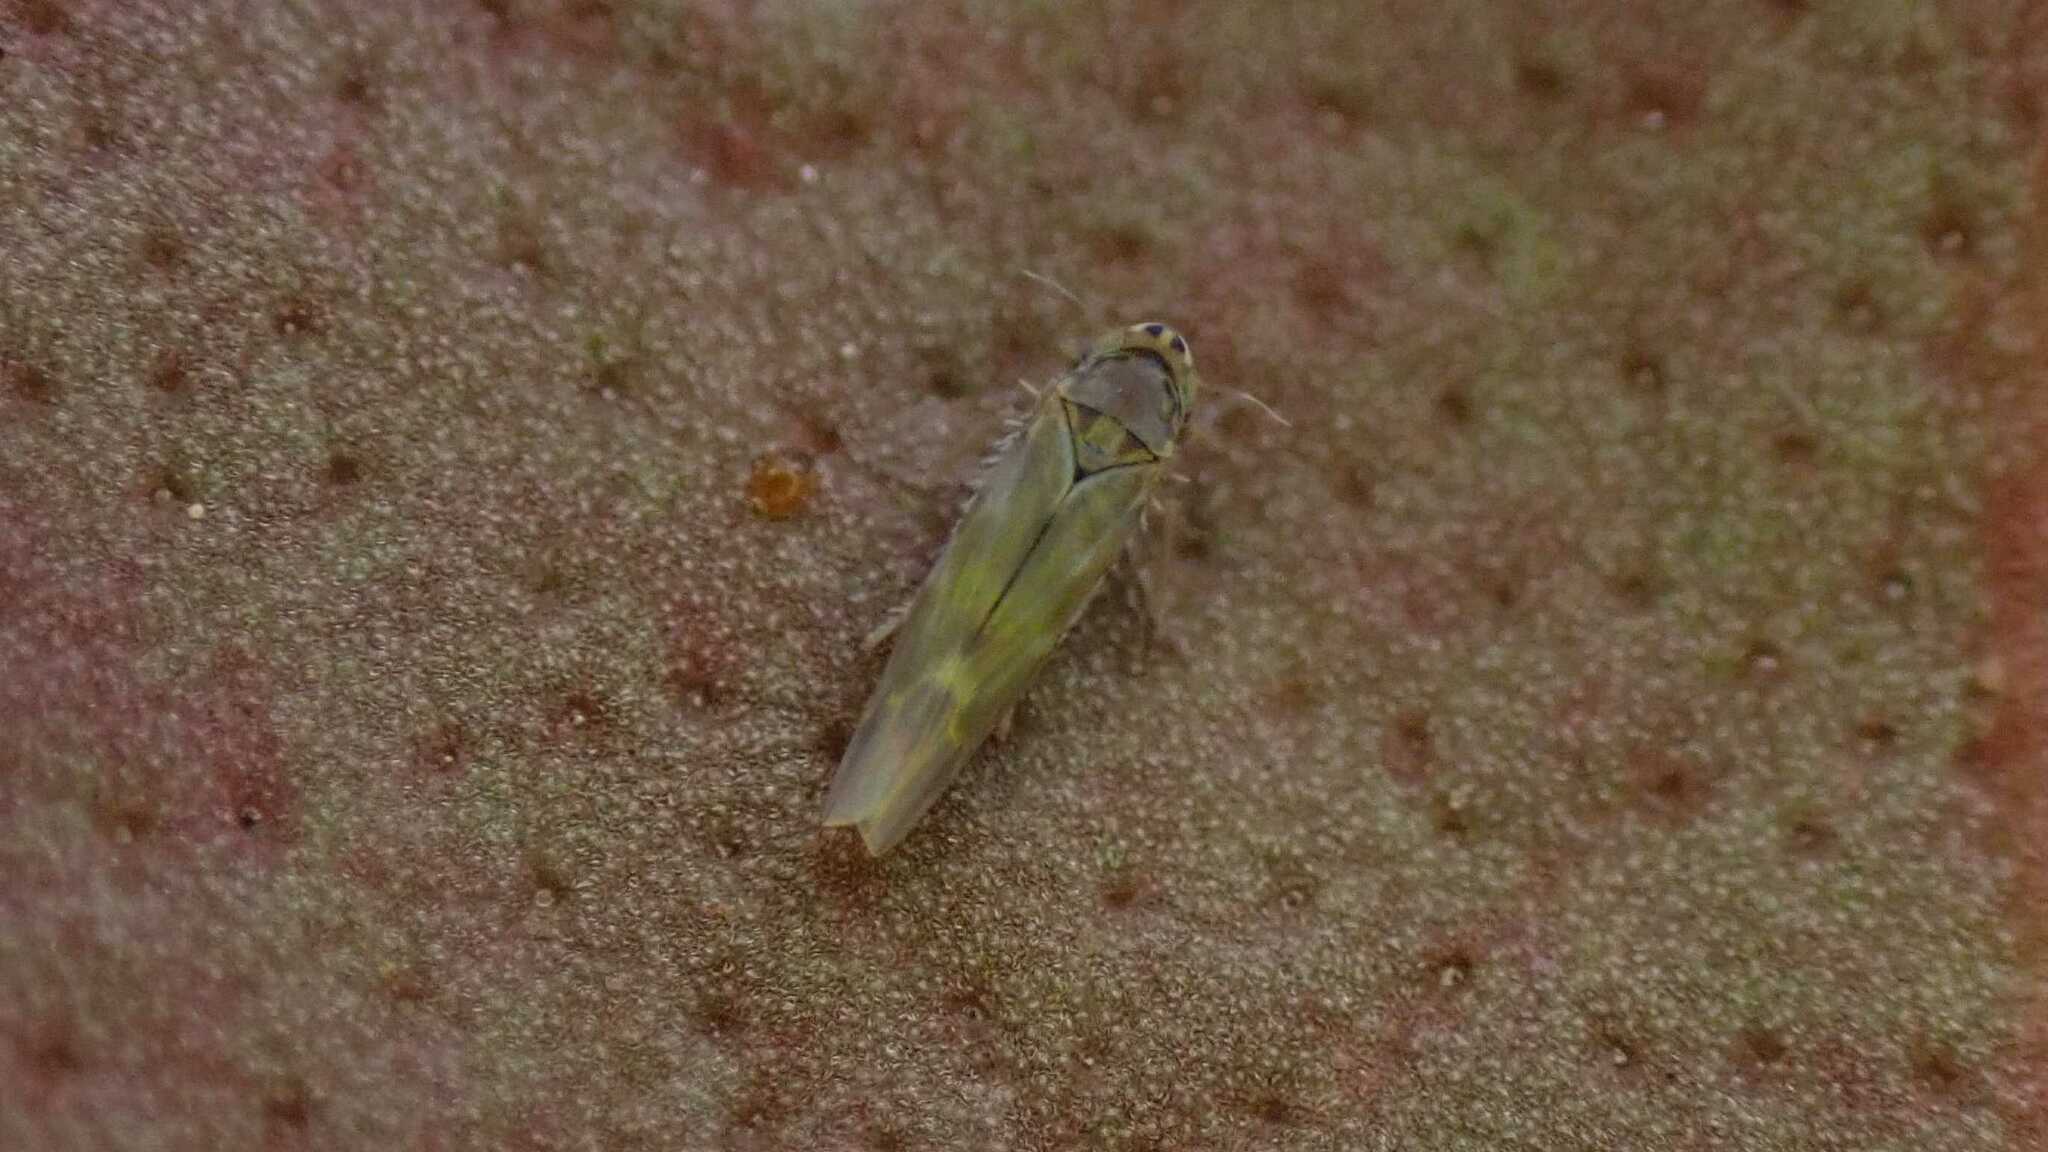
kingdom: Animalia
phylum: Arthropoda
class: Insecta
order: Hemiptera
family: Cicadellidae
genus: Frutioidia
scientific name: Frutioidia bisignata
